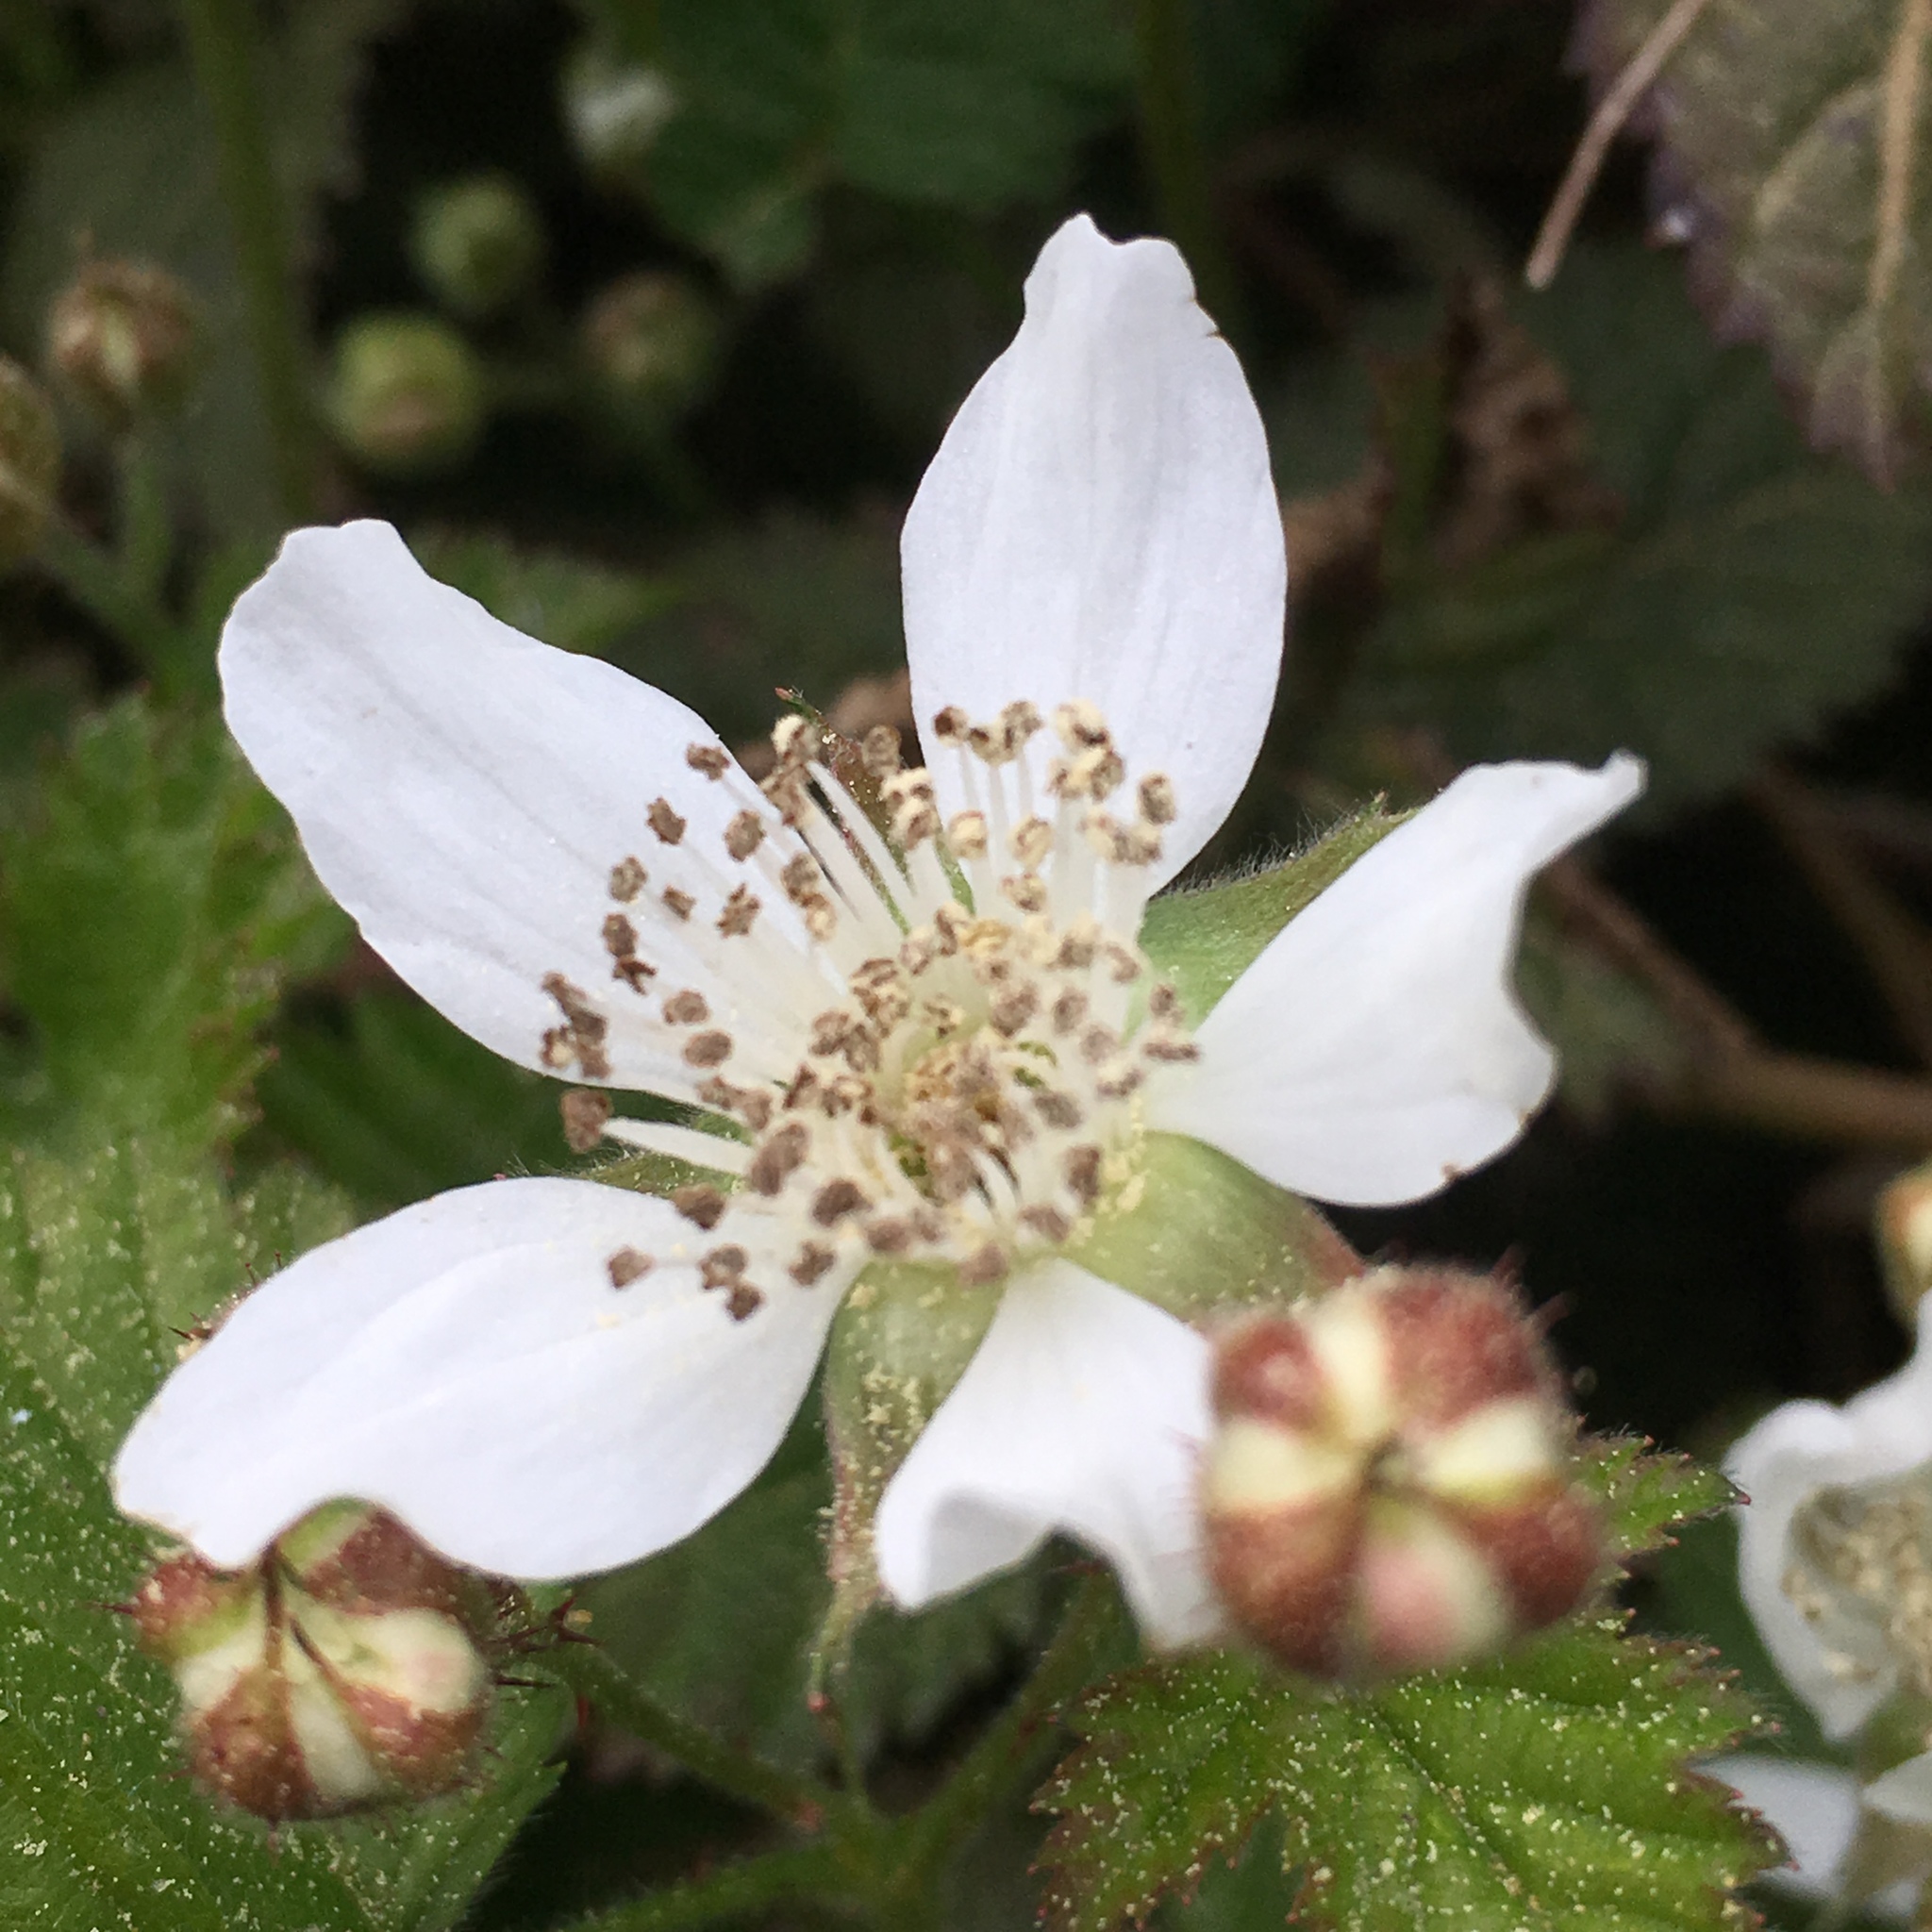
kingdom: Plantae
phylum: Tracheophyta
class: Magnoliopsida
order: Rosales
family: Rosaceae
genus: Rubus
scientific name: Rubus ursinus
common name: Pacific blackberry
